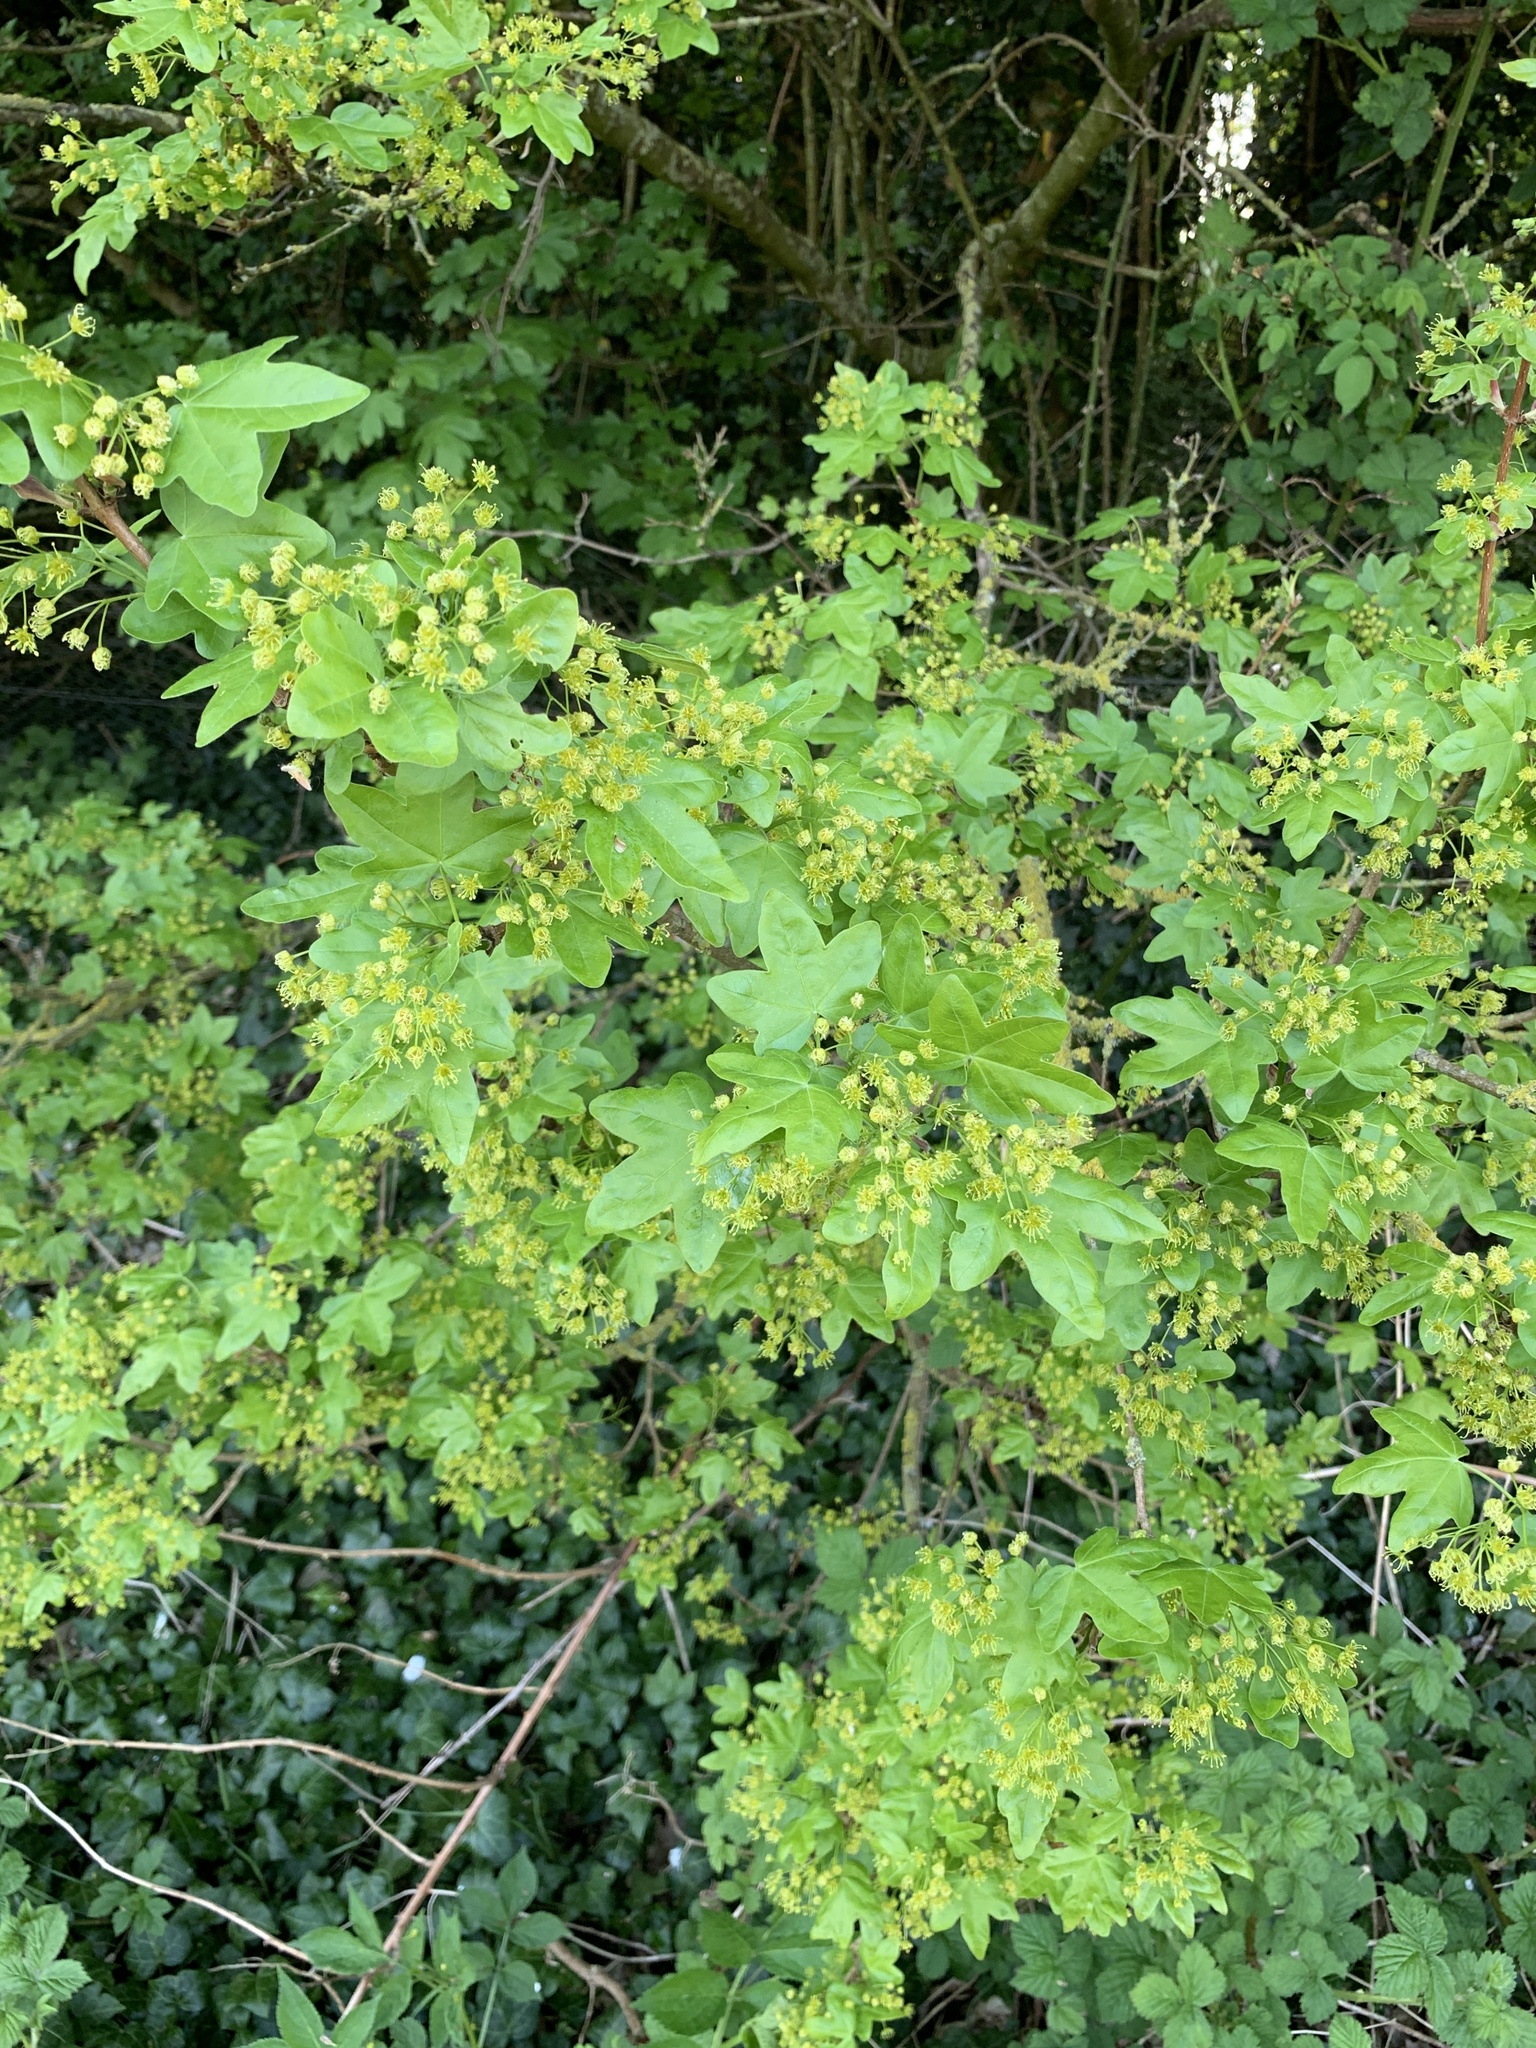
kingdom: Plantae
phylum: Tracheophyta
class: Magnoliopsida
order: Sapindales
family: Sapindaceae
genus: Acer
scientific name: Acer campestre
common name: Field maple
